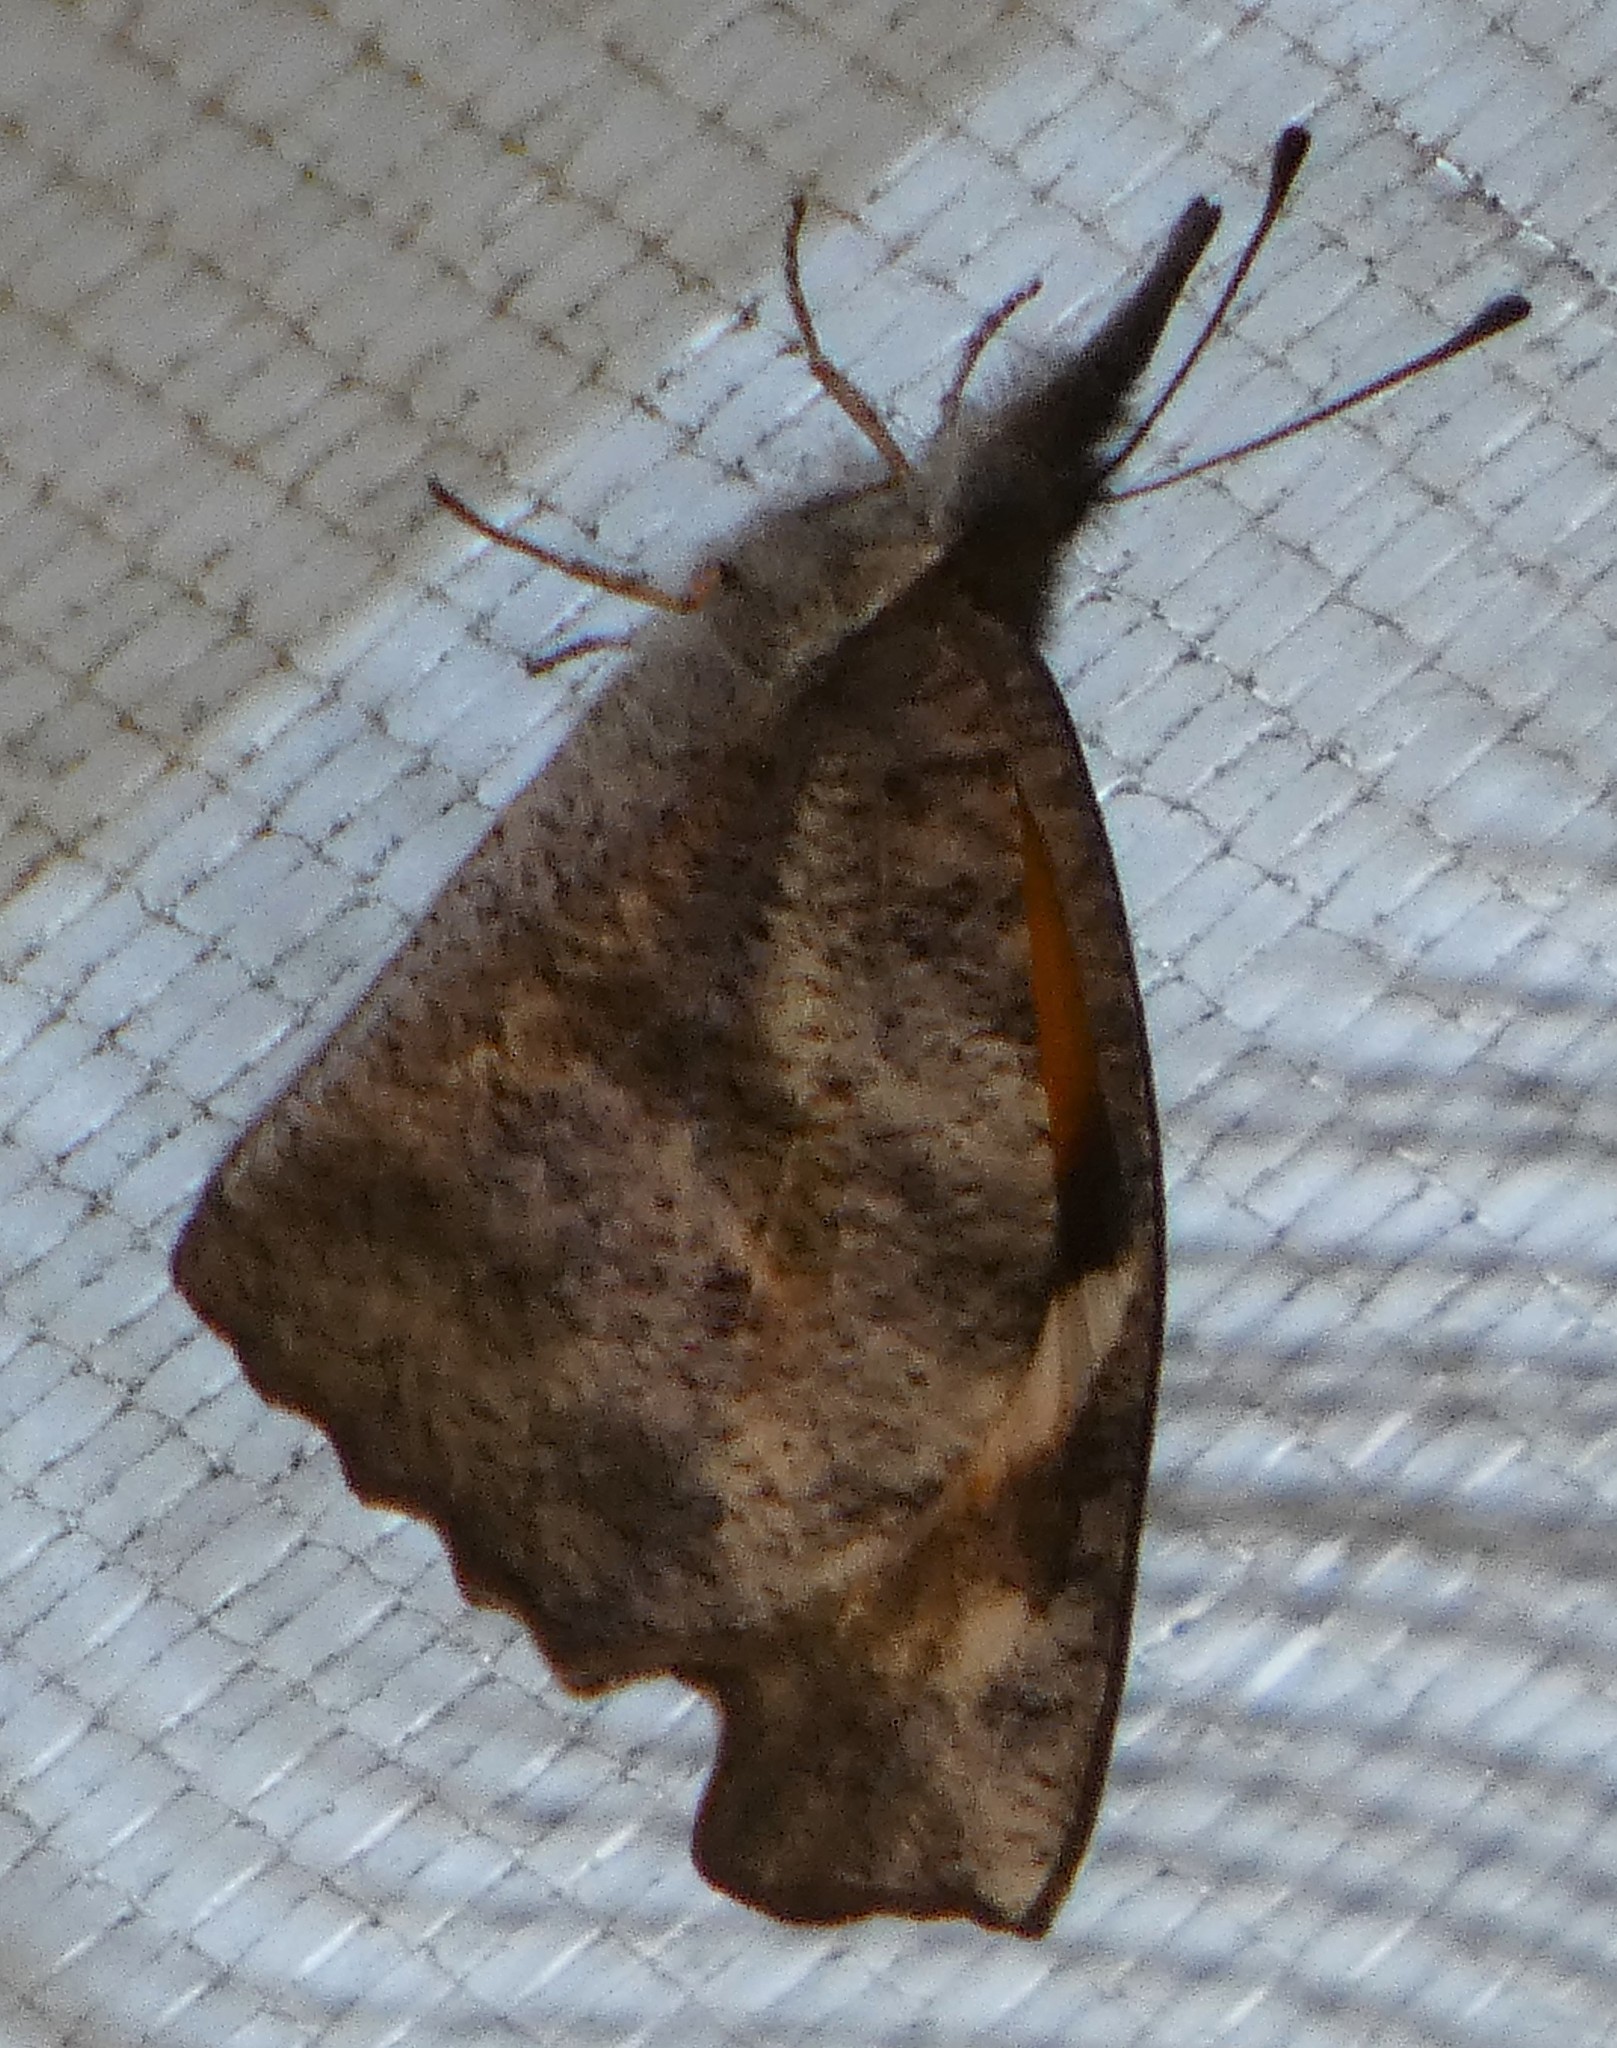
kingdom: Animalia
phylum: Arthropoda
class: Insecta
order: Lepidoptera
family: Nymphalidae
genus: Libytheana
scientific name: Libytheana carinenta
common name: American snout
